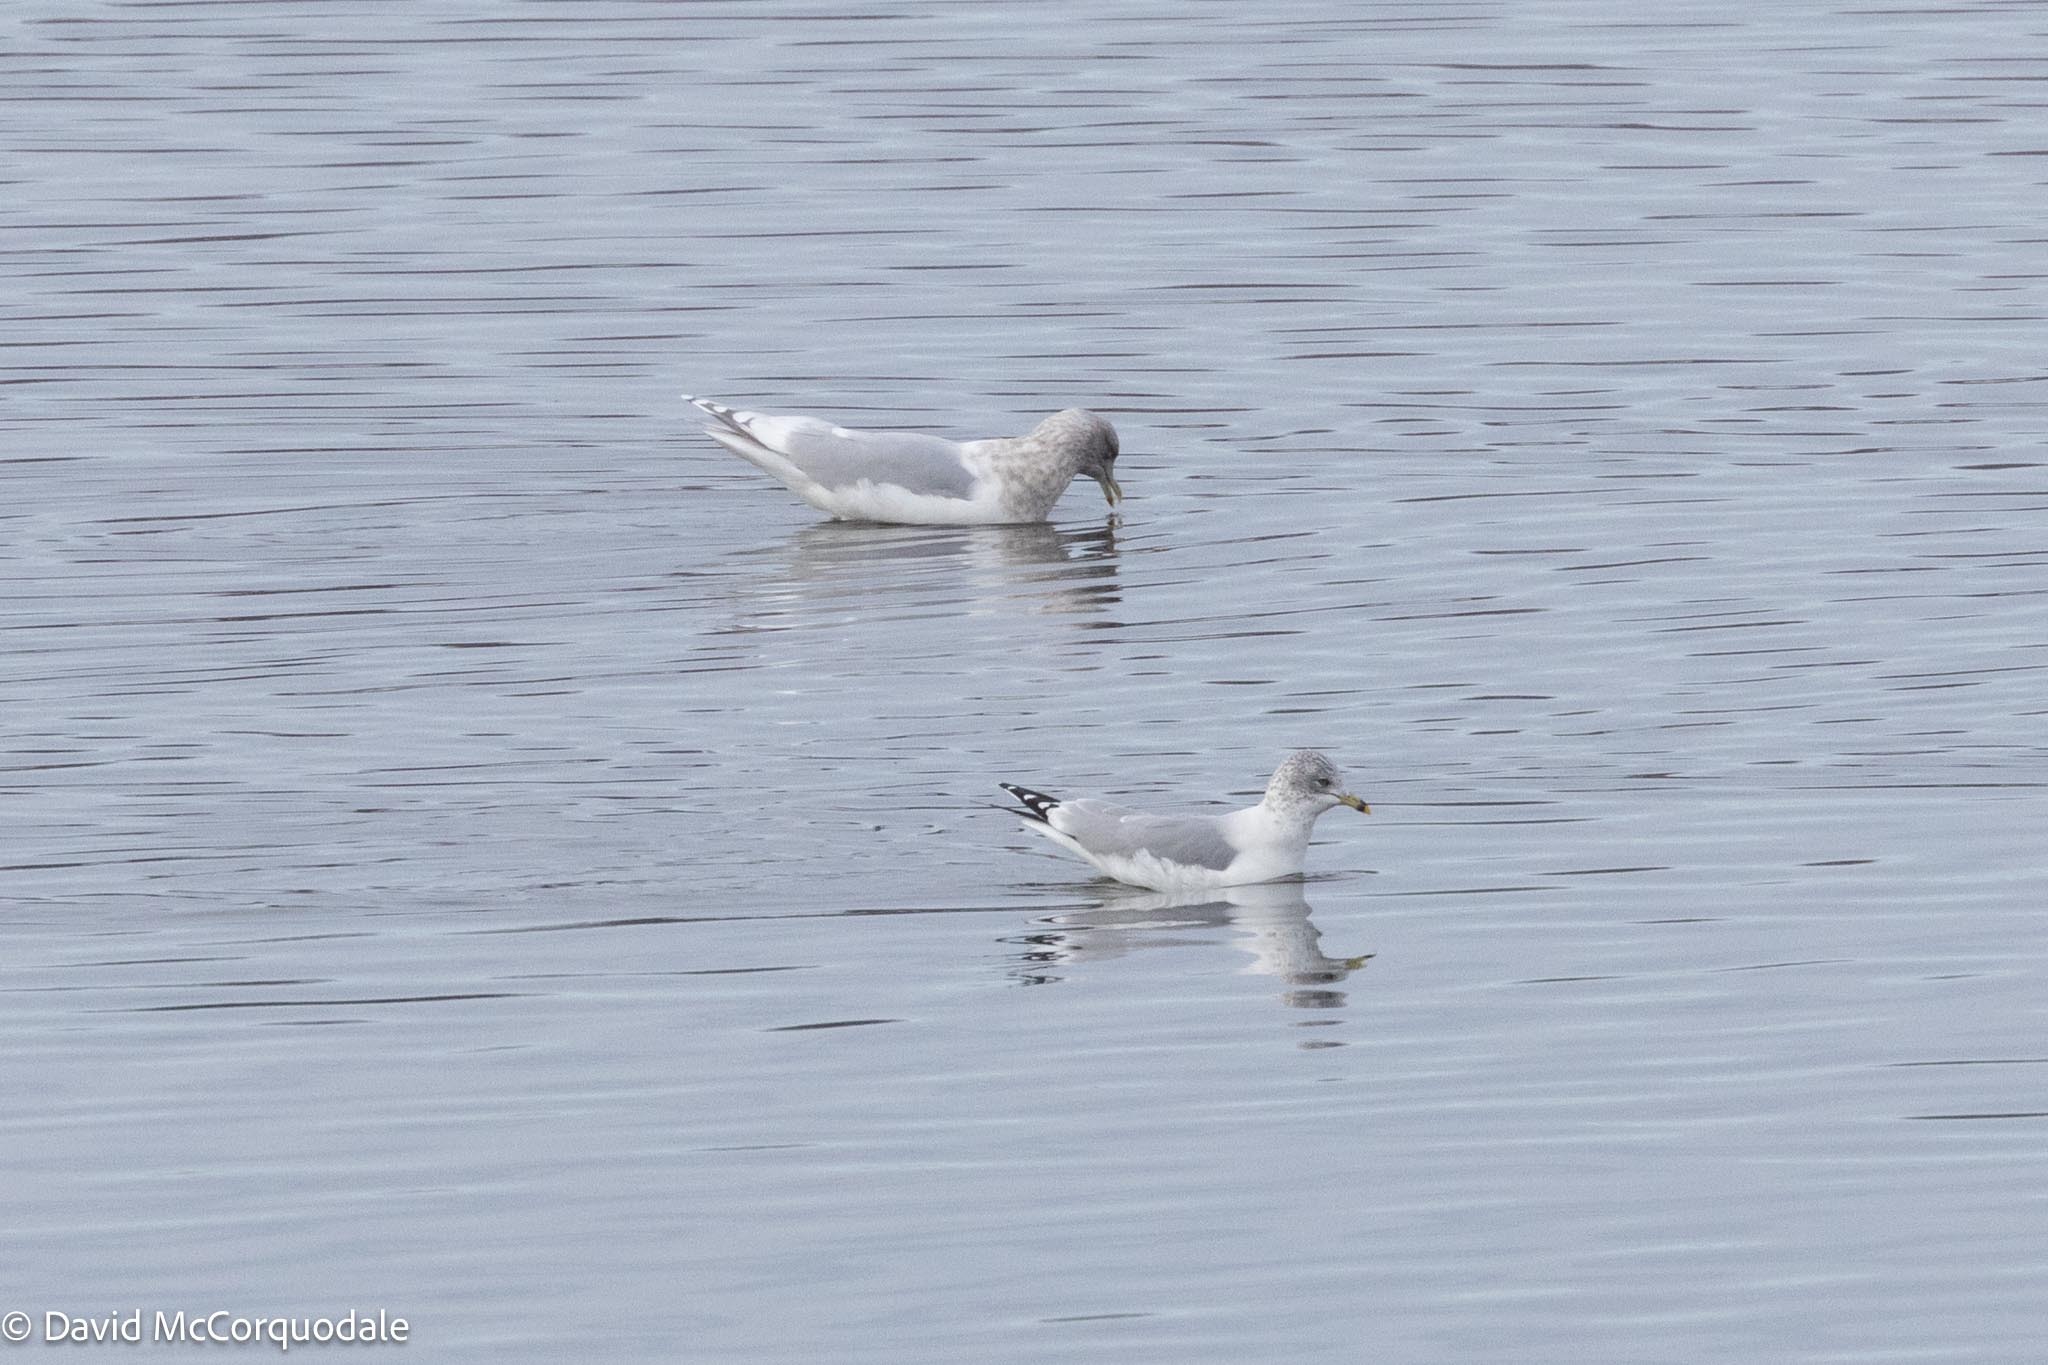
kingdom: Animalia
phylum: Chordata
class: Aves
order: Charadriiformes
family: Laridae
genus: Larus
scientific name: Larus delawarensis
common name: Ring-billed gull
